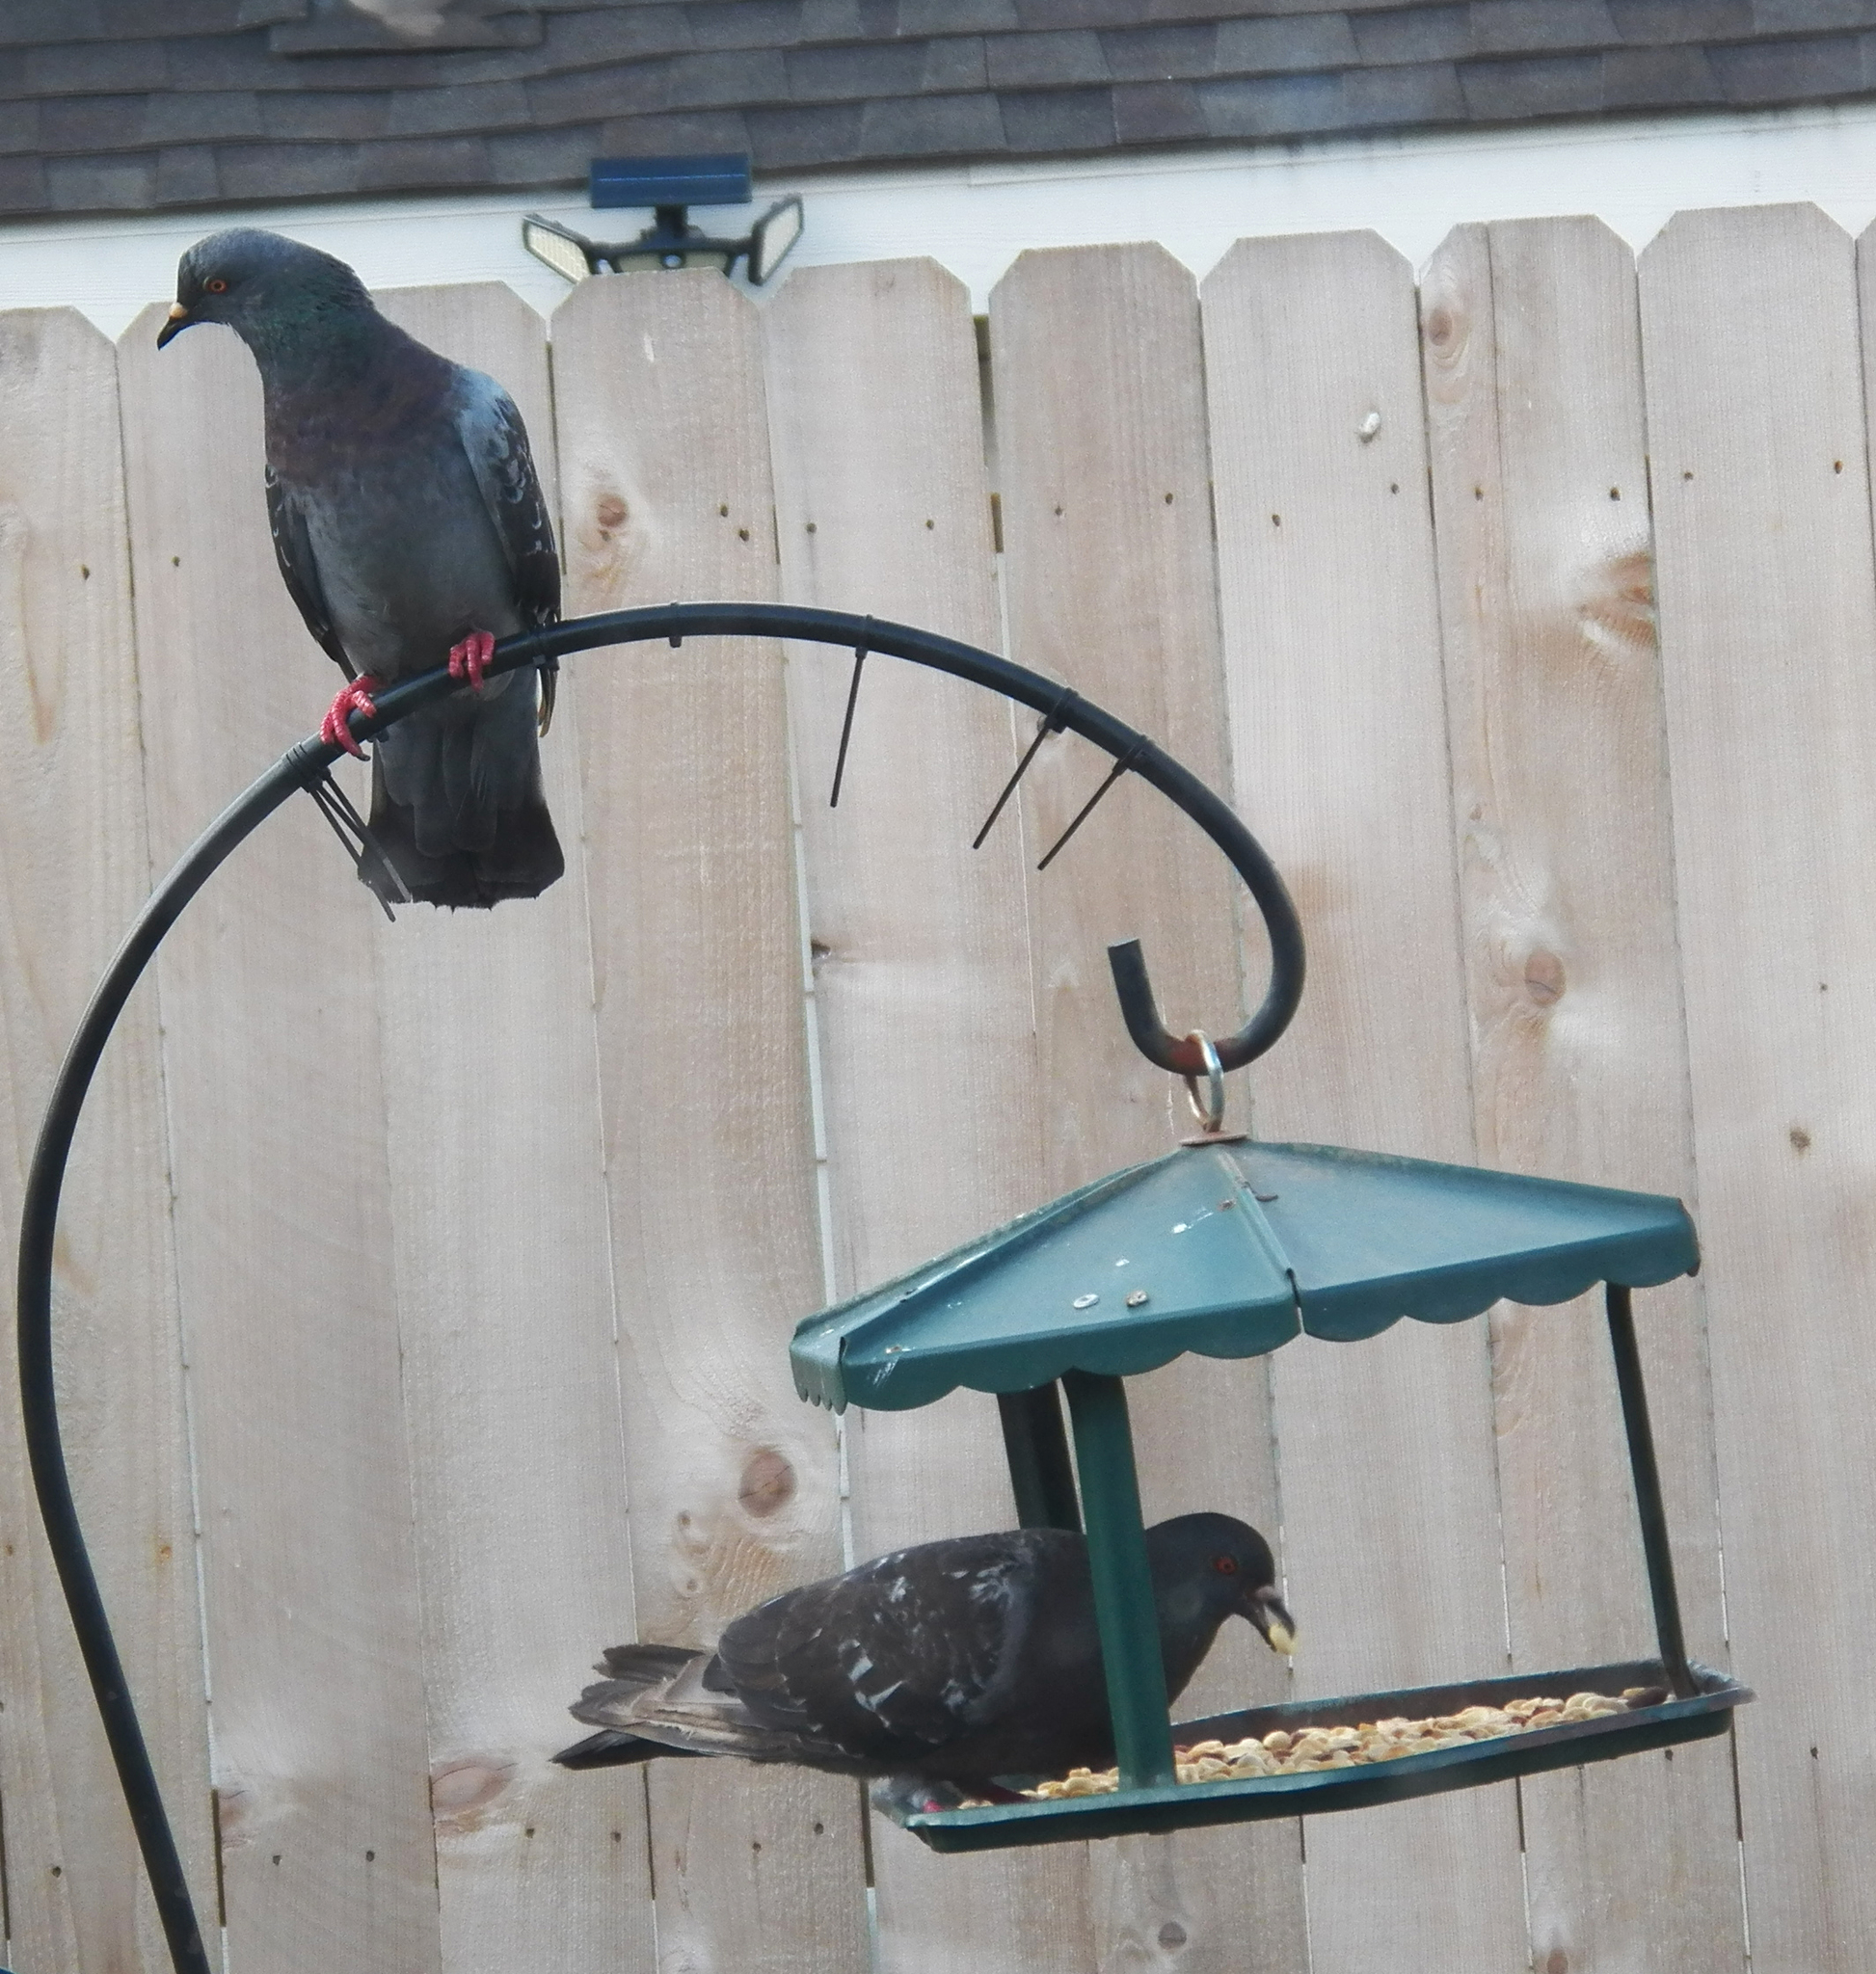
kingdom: Animalia
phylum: Chordata
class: Aves
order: Columbiformes
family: Columbidae
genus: Columba
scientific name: Columba livia
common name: Rock pigeon
